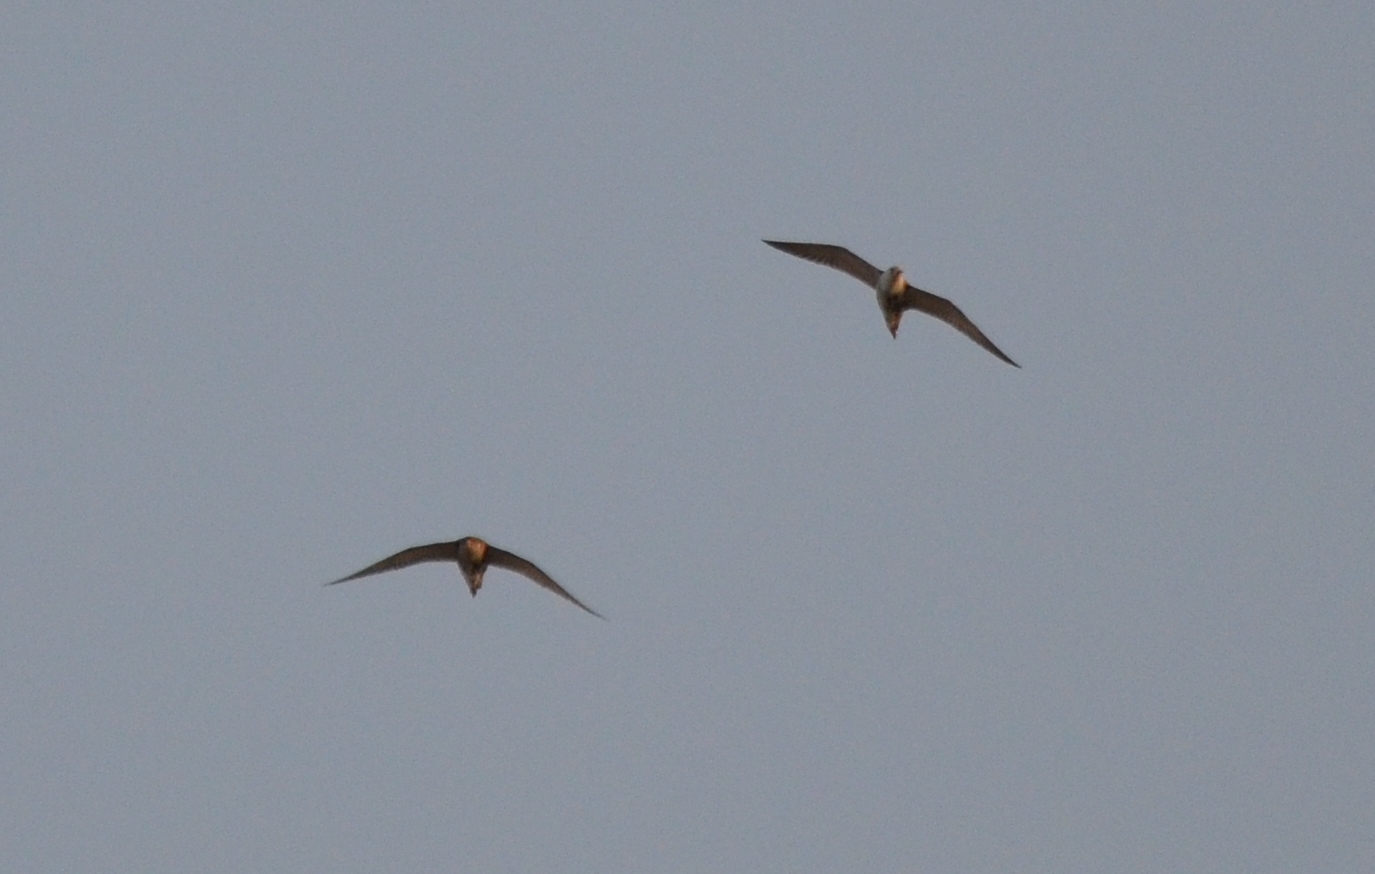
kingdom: Animalia
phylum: Chordata
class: Aves
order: Charadriiformes
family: Scolopacidae
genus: Calidris
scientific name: Calidris pugnax
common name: Ruff
